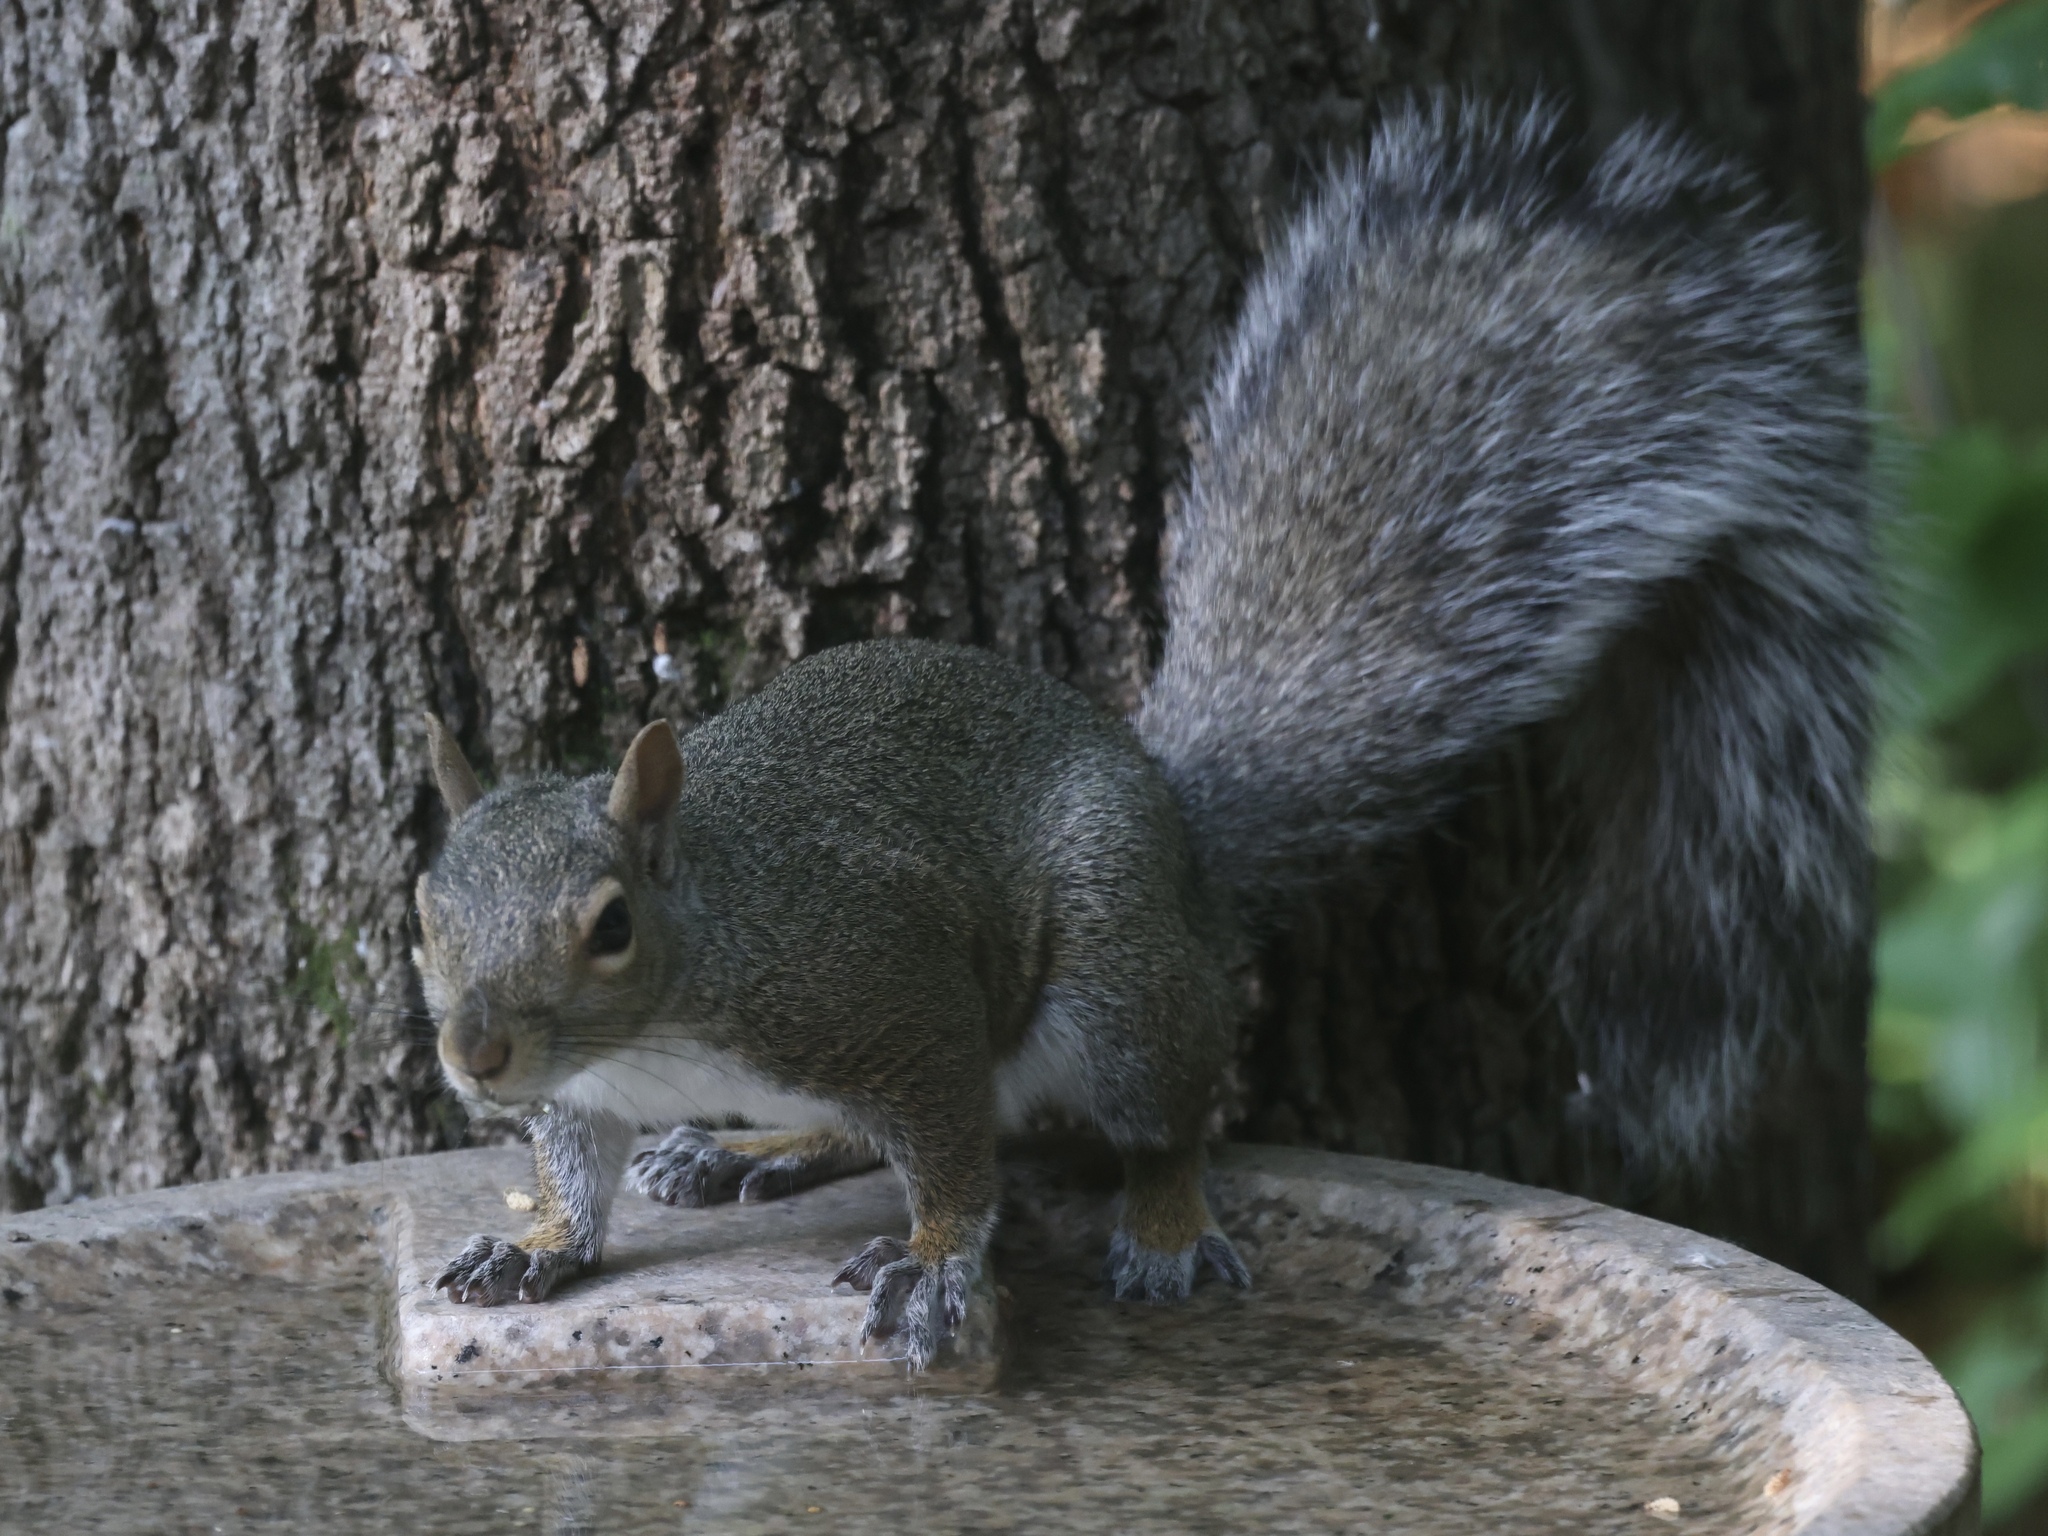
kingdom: Animalia
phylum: Chordata
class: Mammalia
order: Rodentia
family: Sciuridae
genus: Sciurus
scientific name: Sciurus carolinensis
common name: Eastern gray squirrel
